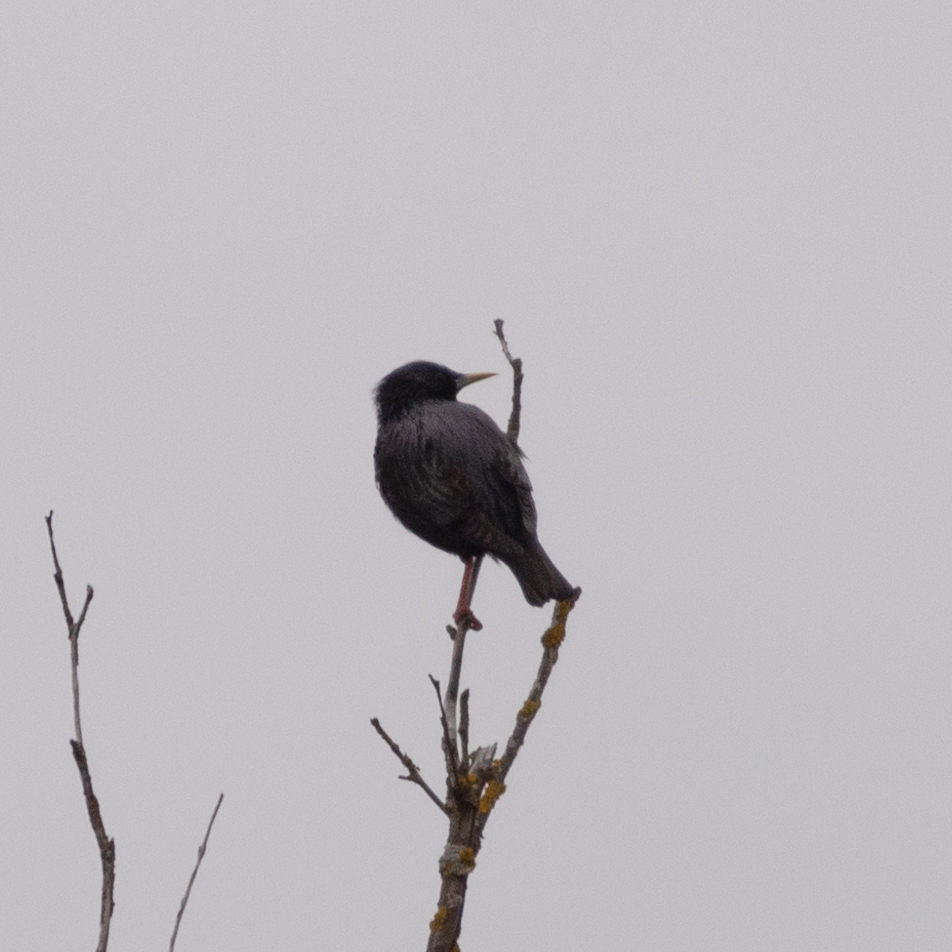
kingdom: Animalia
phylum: Chordata
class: Aves
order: Passeriformes
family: Sturnidae
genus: Sturnus
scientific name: Sturnus unicolor
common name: Spotless starling
